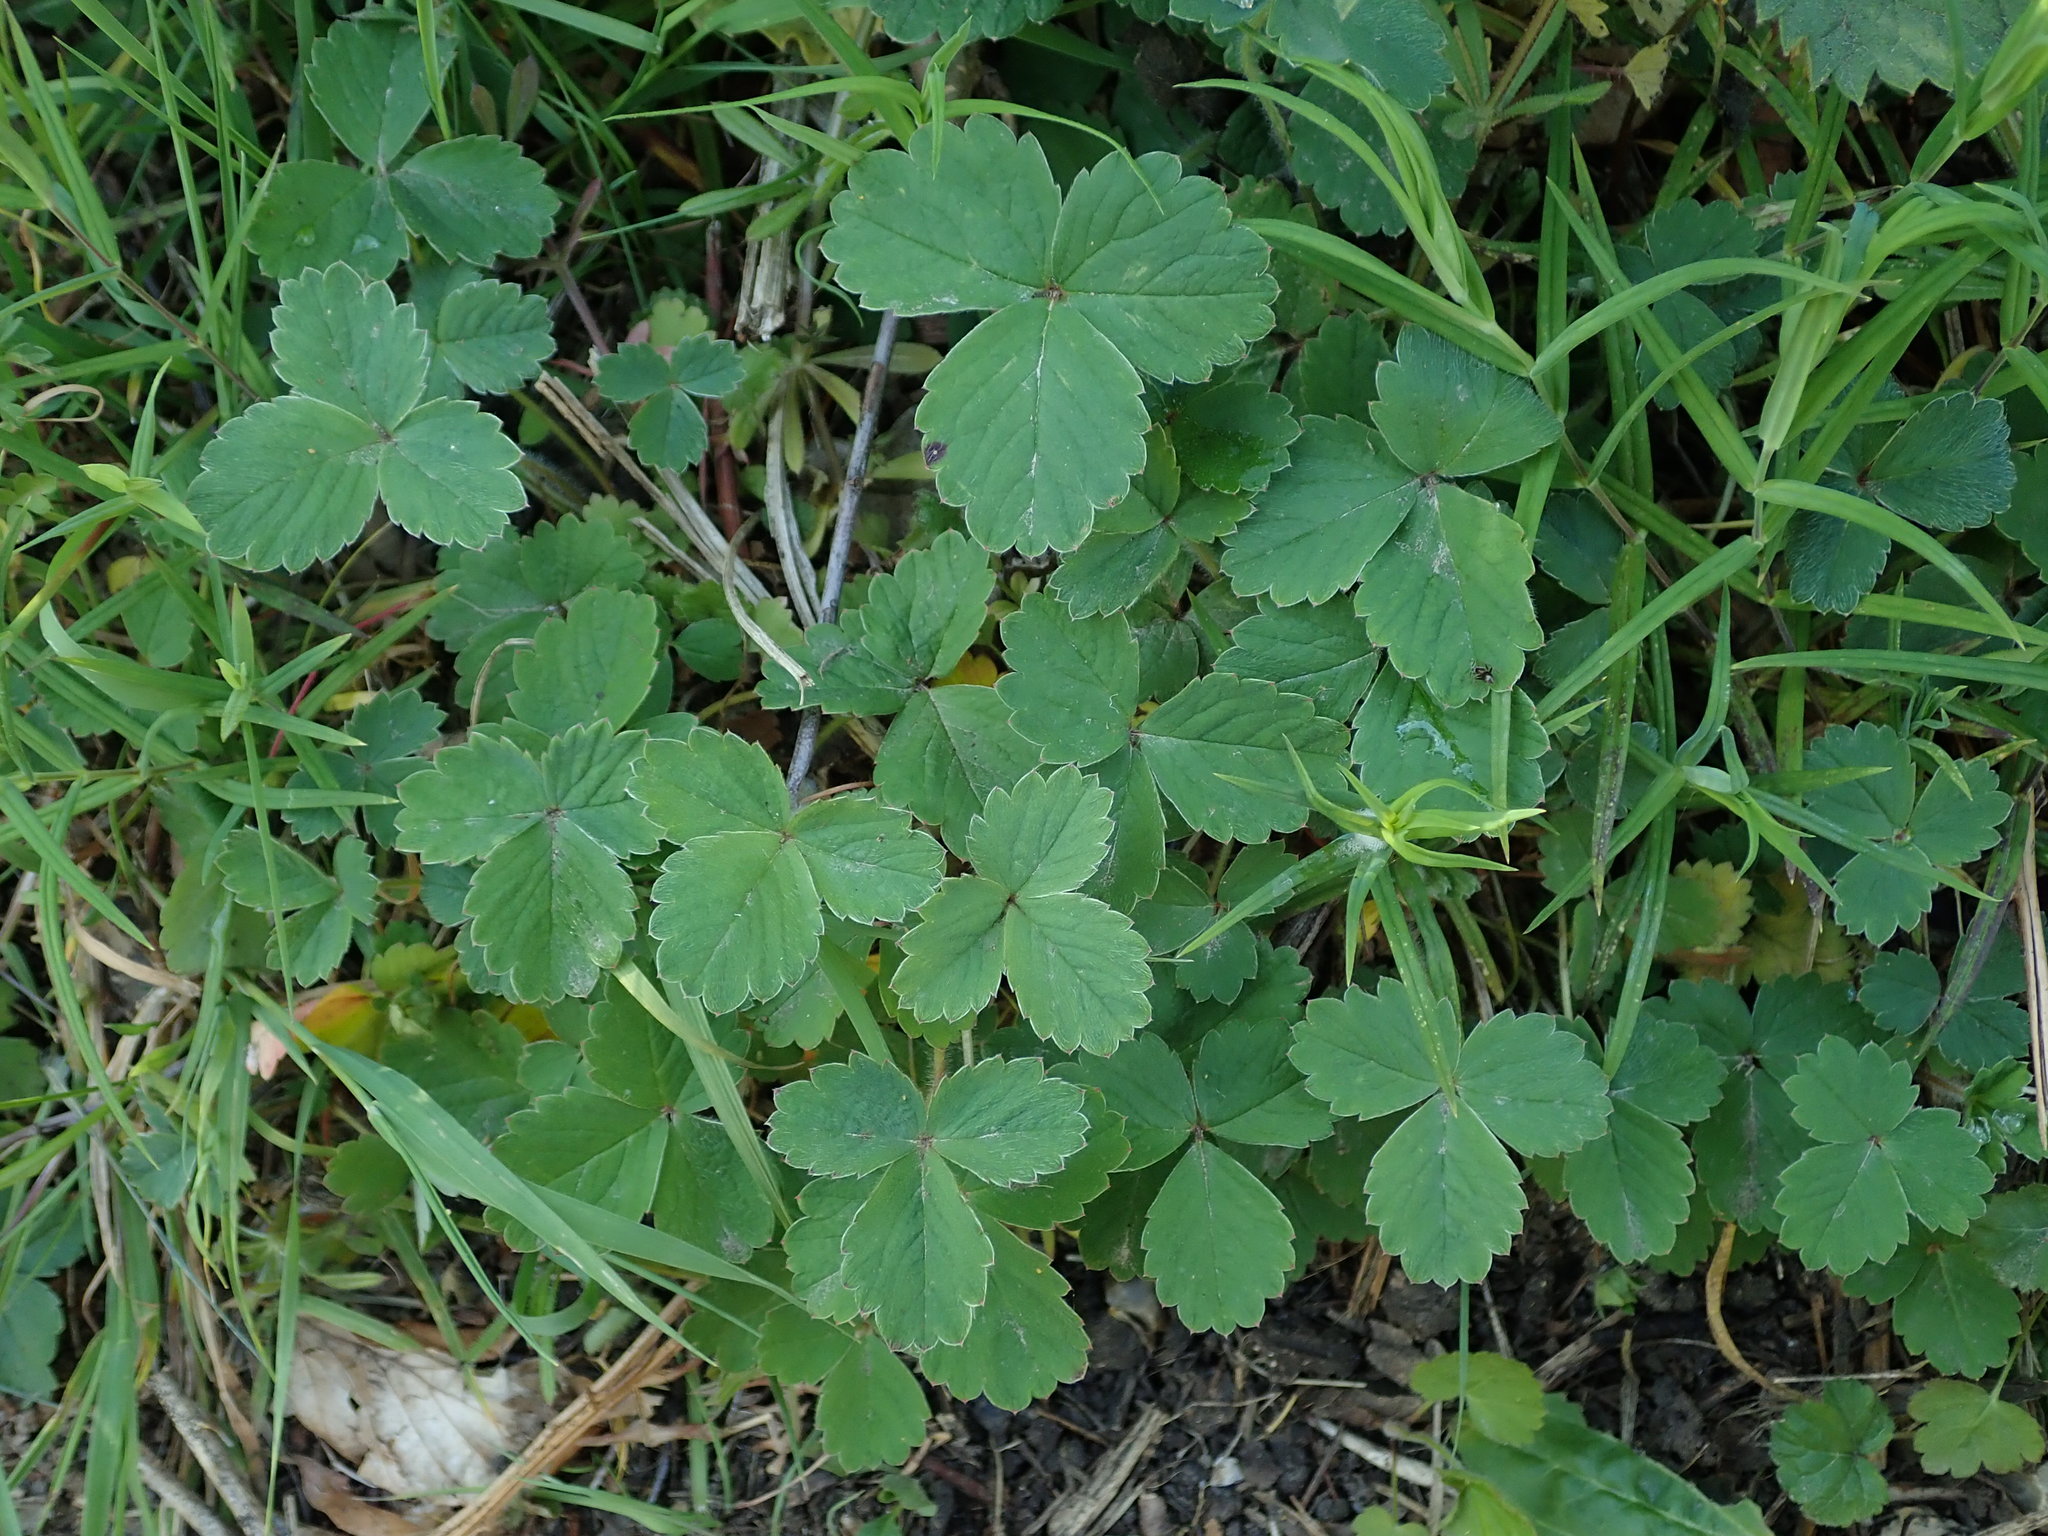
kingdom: Plantae
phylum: Tracheophyta
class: Magnoliopsida
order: Rosales
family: Rosaceae
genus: Potentilla
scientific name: Potentilla sterilis
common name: Barren strawberry
